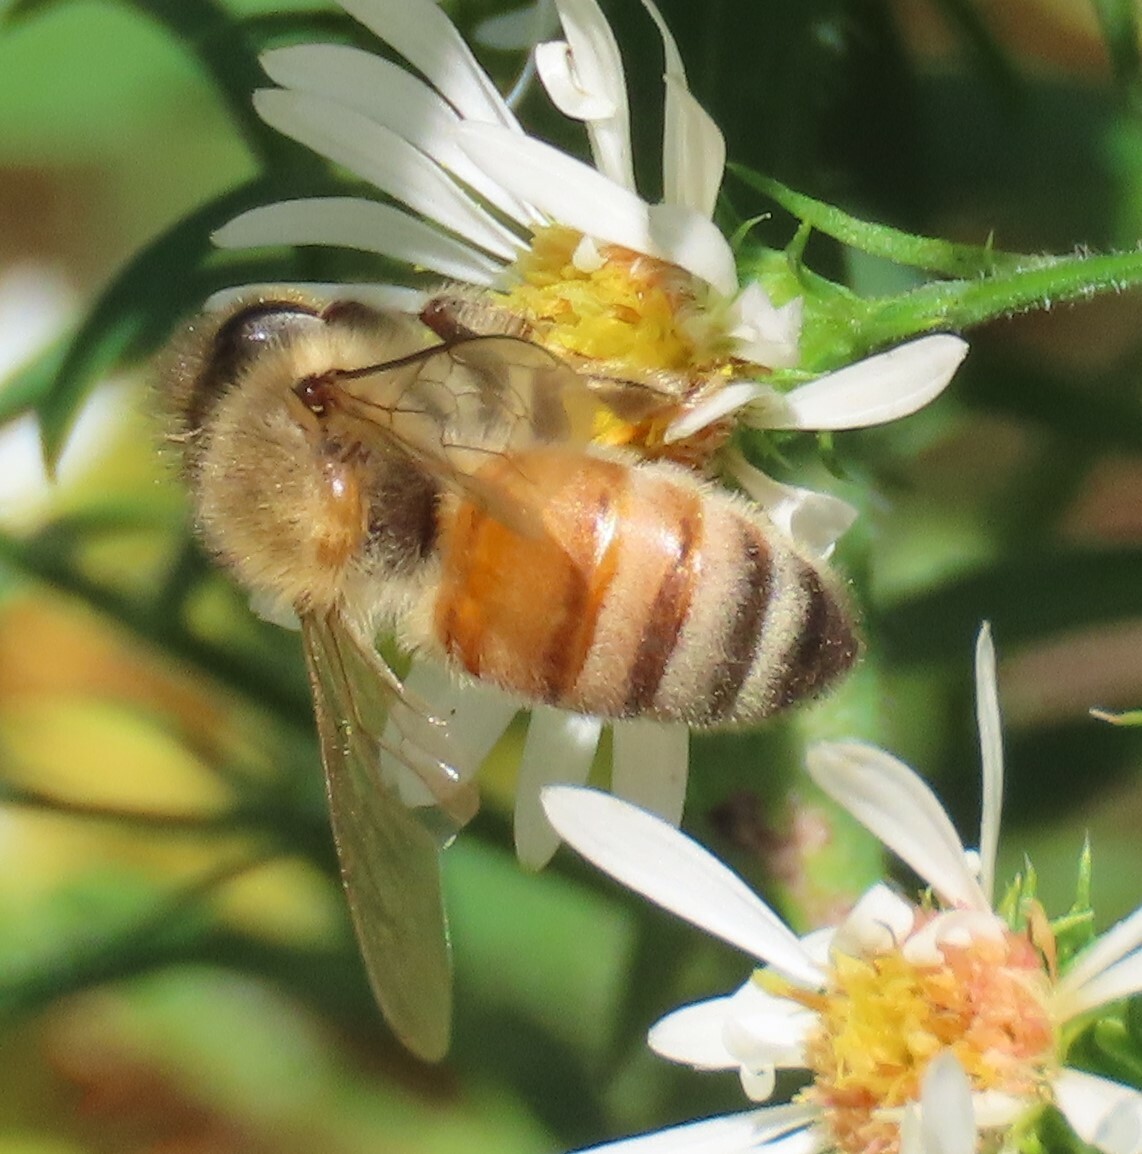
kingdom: Animalia
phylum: Arthropoda
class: Insecta
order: Hymenoptera
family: Apidae
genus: Apis
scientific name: Apis mellifera
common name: Honey bee
